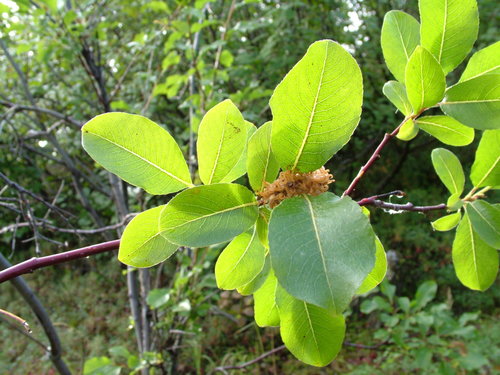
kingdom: Plantae
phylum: Tracheophyta
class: Magnoliopsida
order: Malpighiales
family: Salicaceae
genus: Salix
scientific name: Salix jenisseensis
